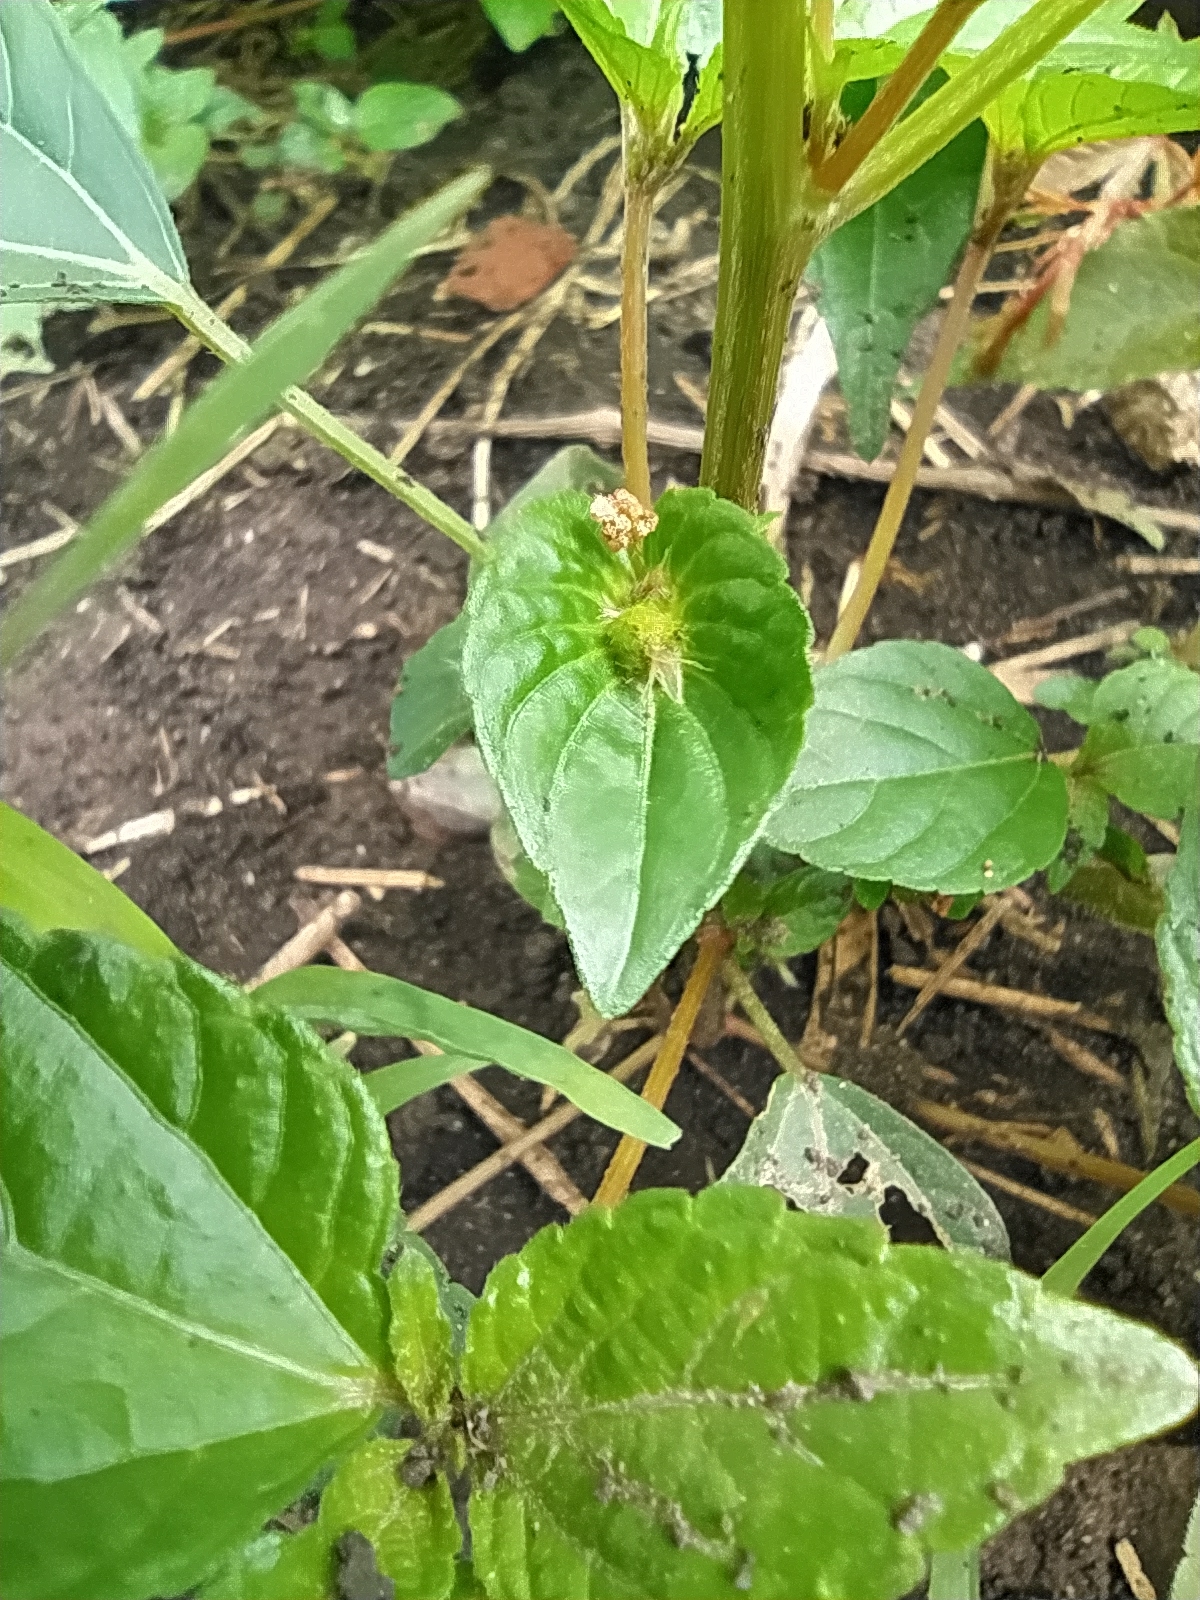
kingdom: Plantae
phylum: Tracheophyta
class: Magnoliopsida
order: Malpighiales
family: Euphorbiaceae
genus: Acalypha
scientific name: Acalypha australis
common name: Asian copperleaf
